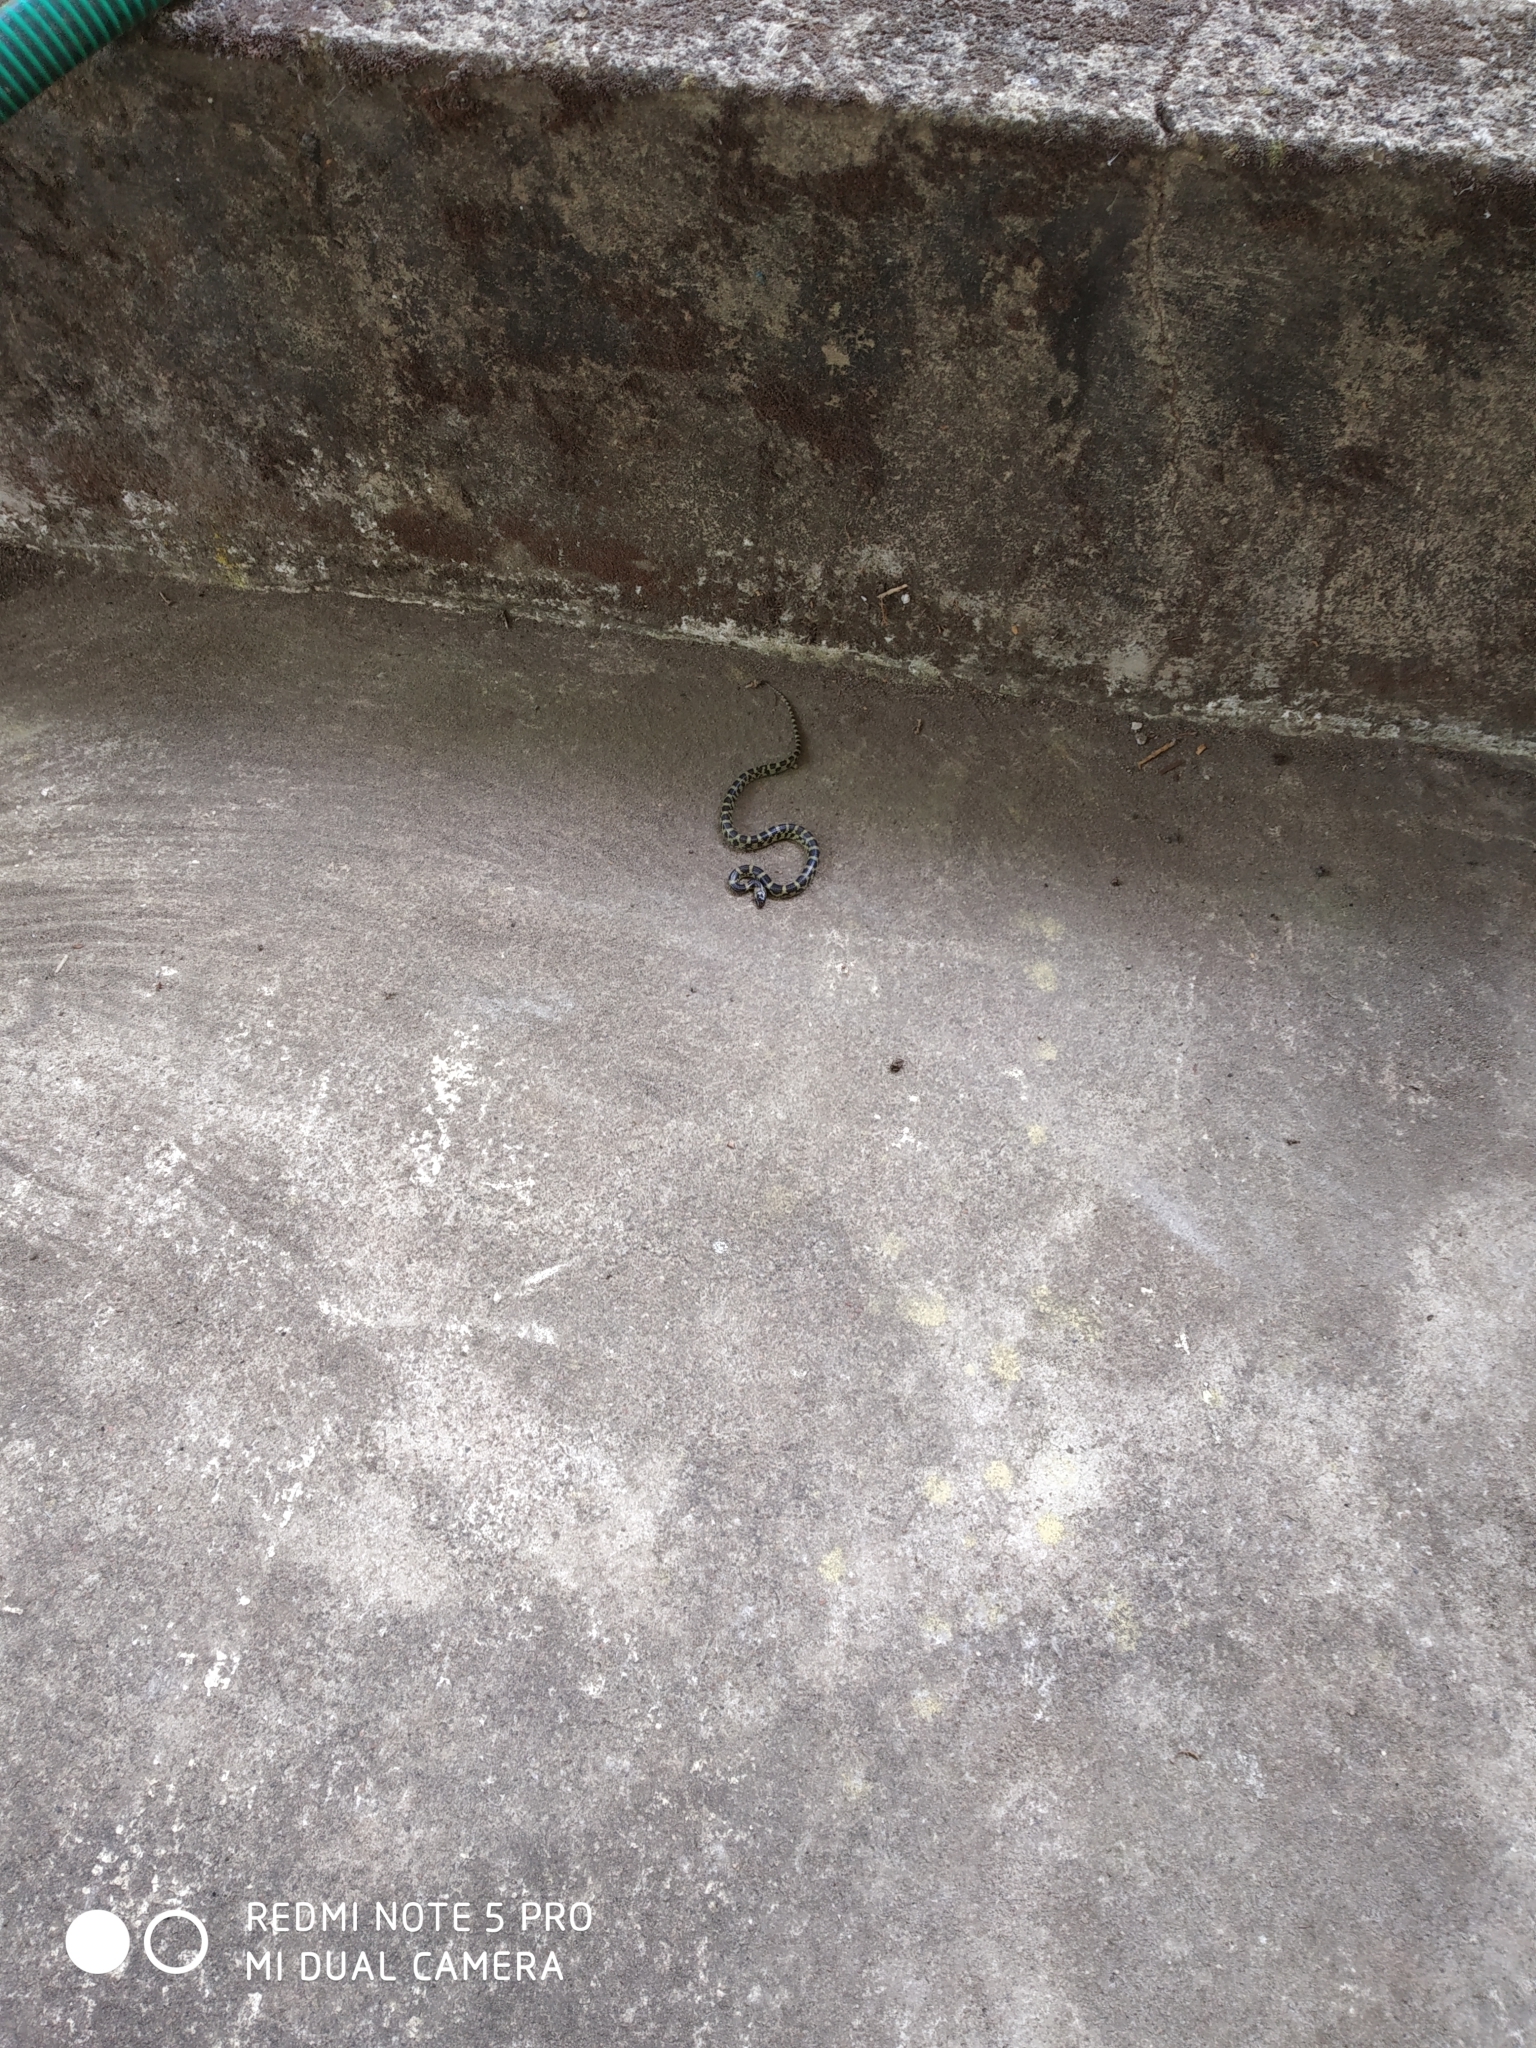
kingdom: Animalia
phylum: Chordata
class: Squamata
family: Colubridae
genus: Lycodon
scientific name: Lycodon travancoricus
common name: Travancore wolf snake
